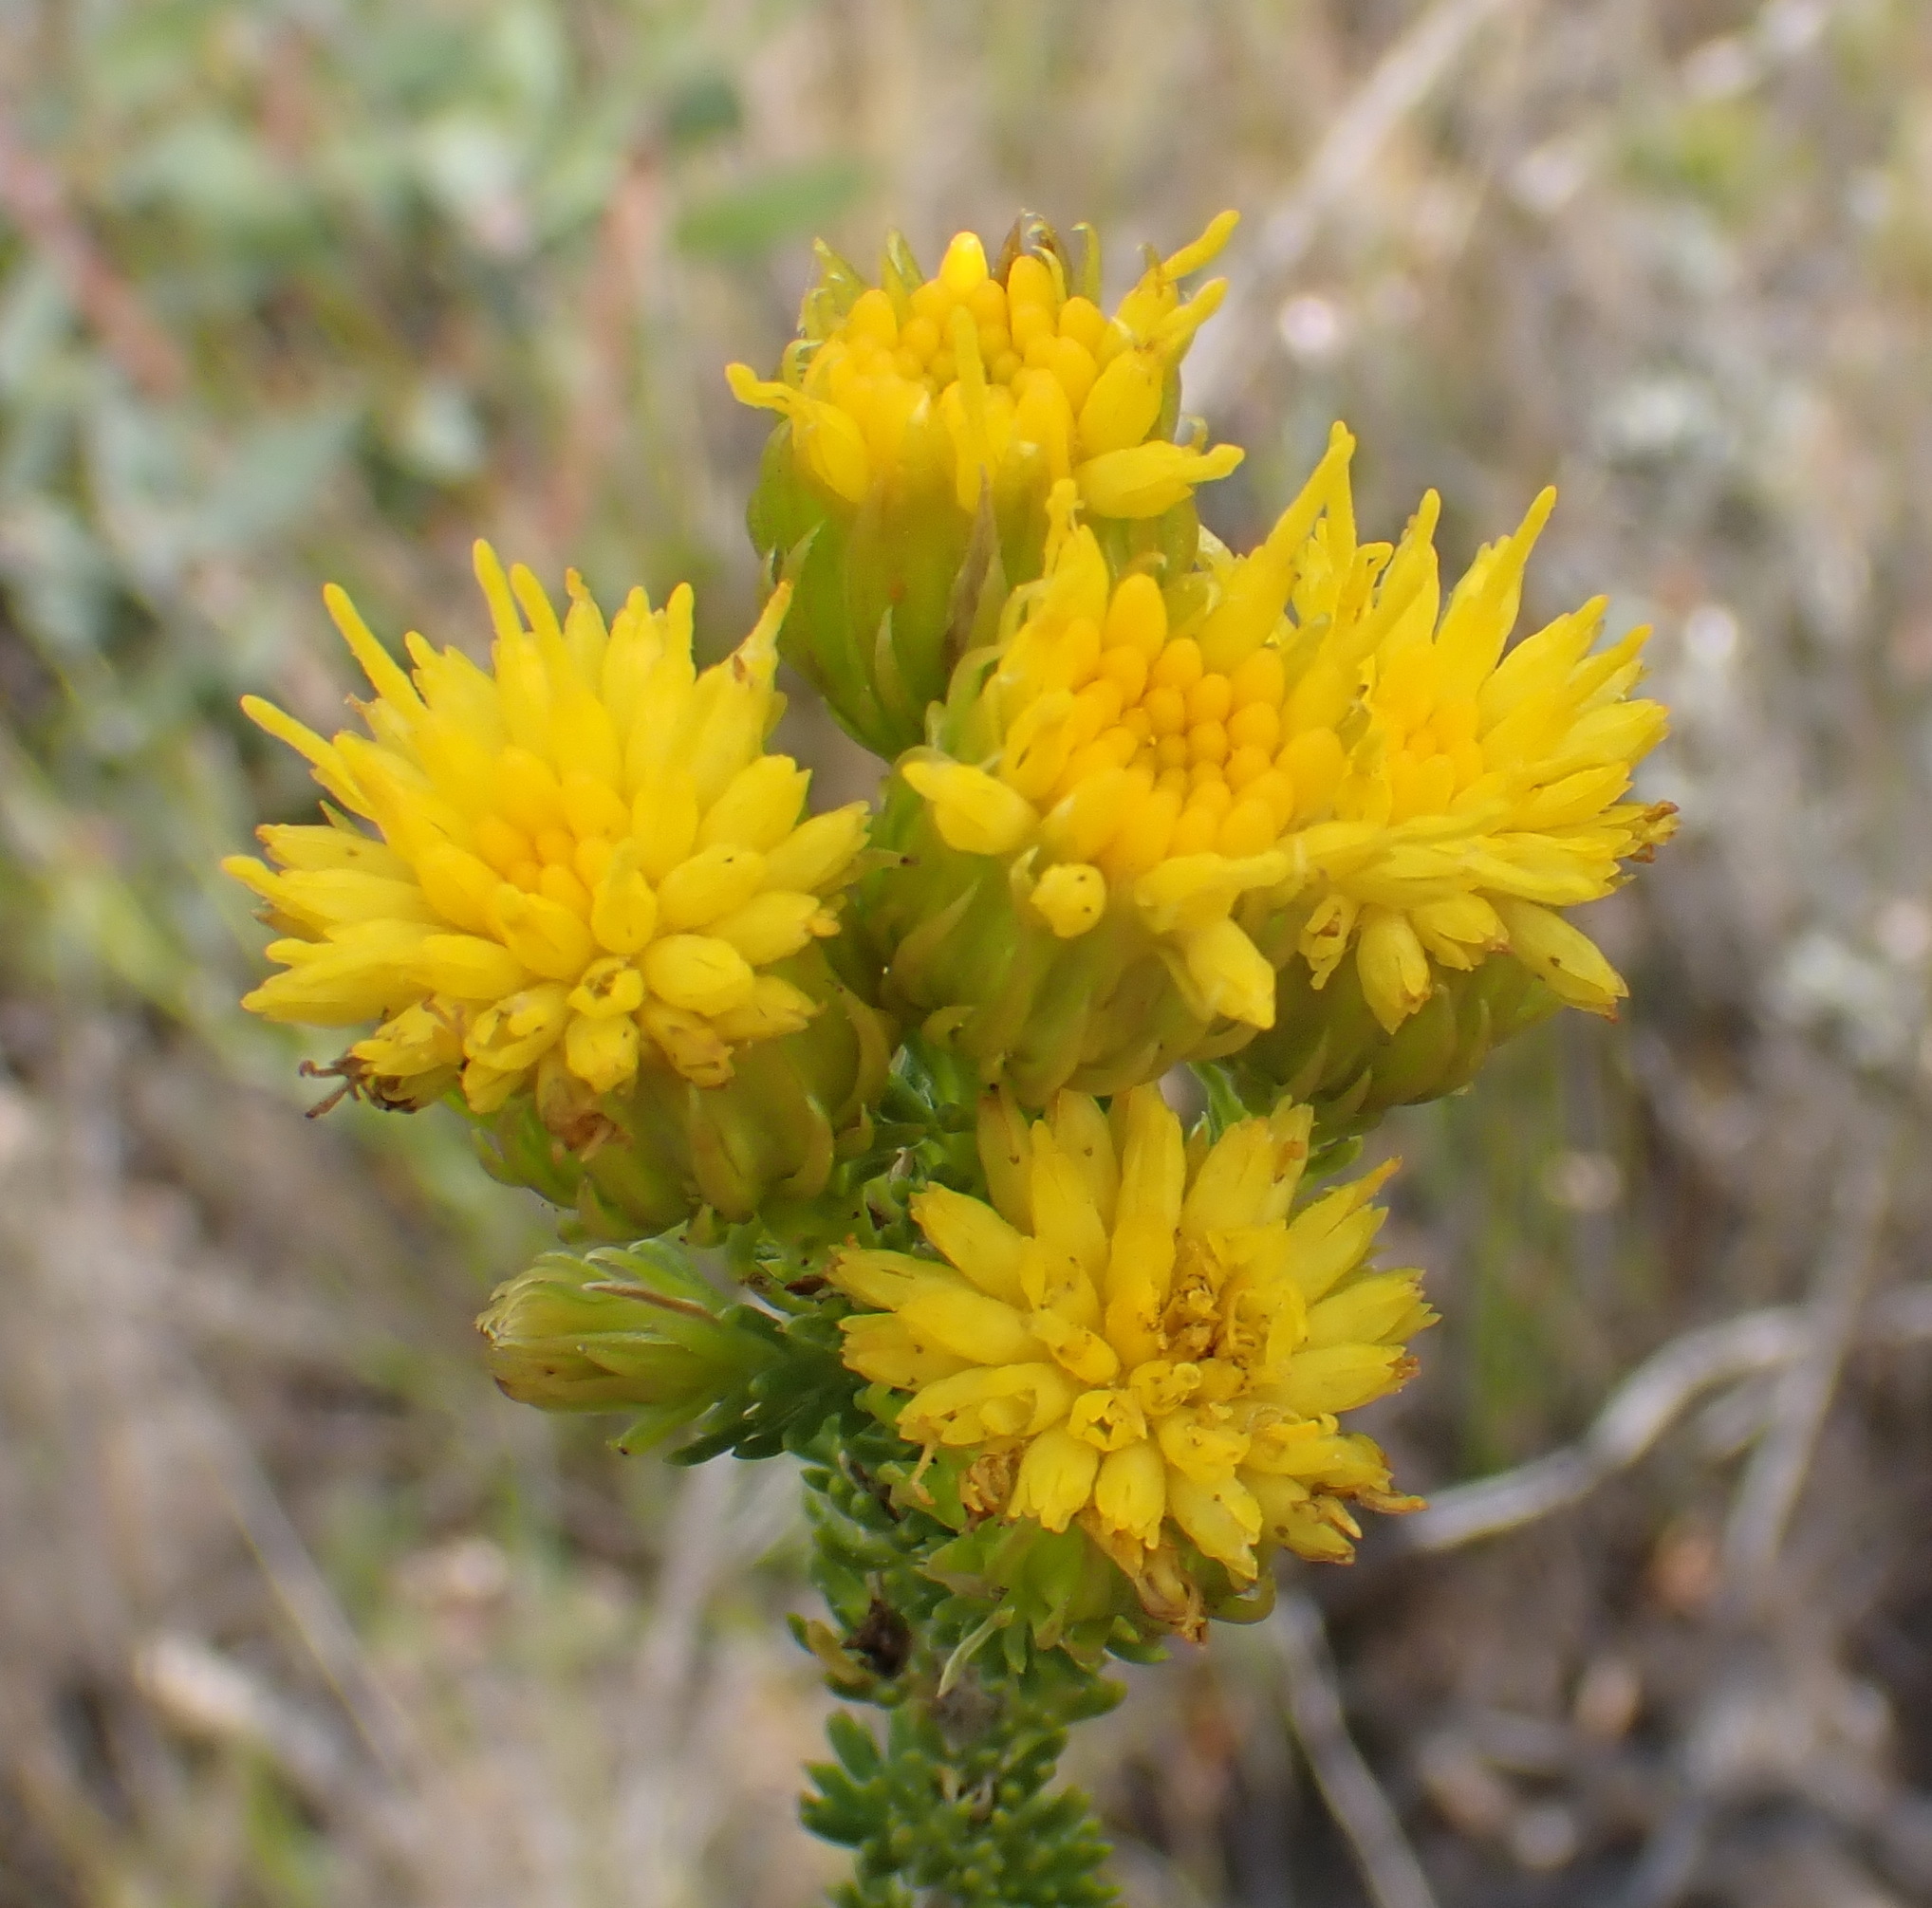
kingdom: Plantae
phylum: Tracheophyta
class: Magnoliopsida
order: Asterales
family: Asteraceae
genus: Pteronia
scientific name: Pteronia camphorata
